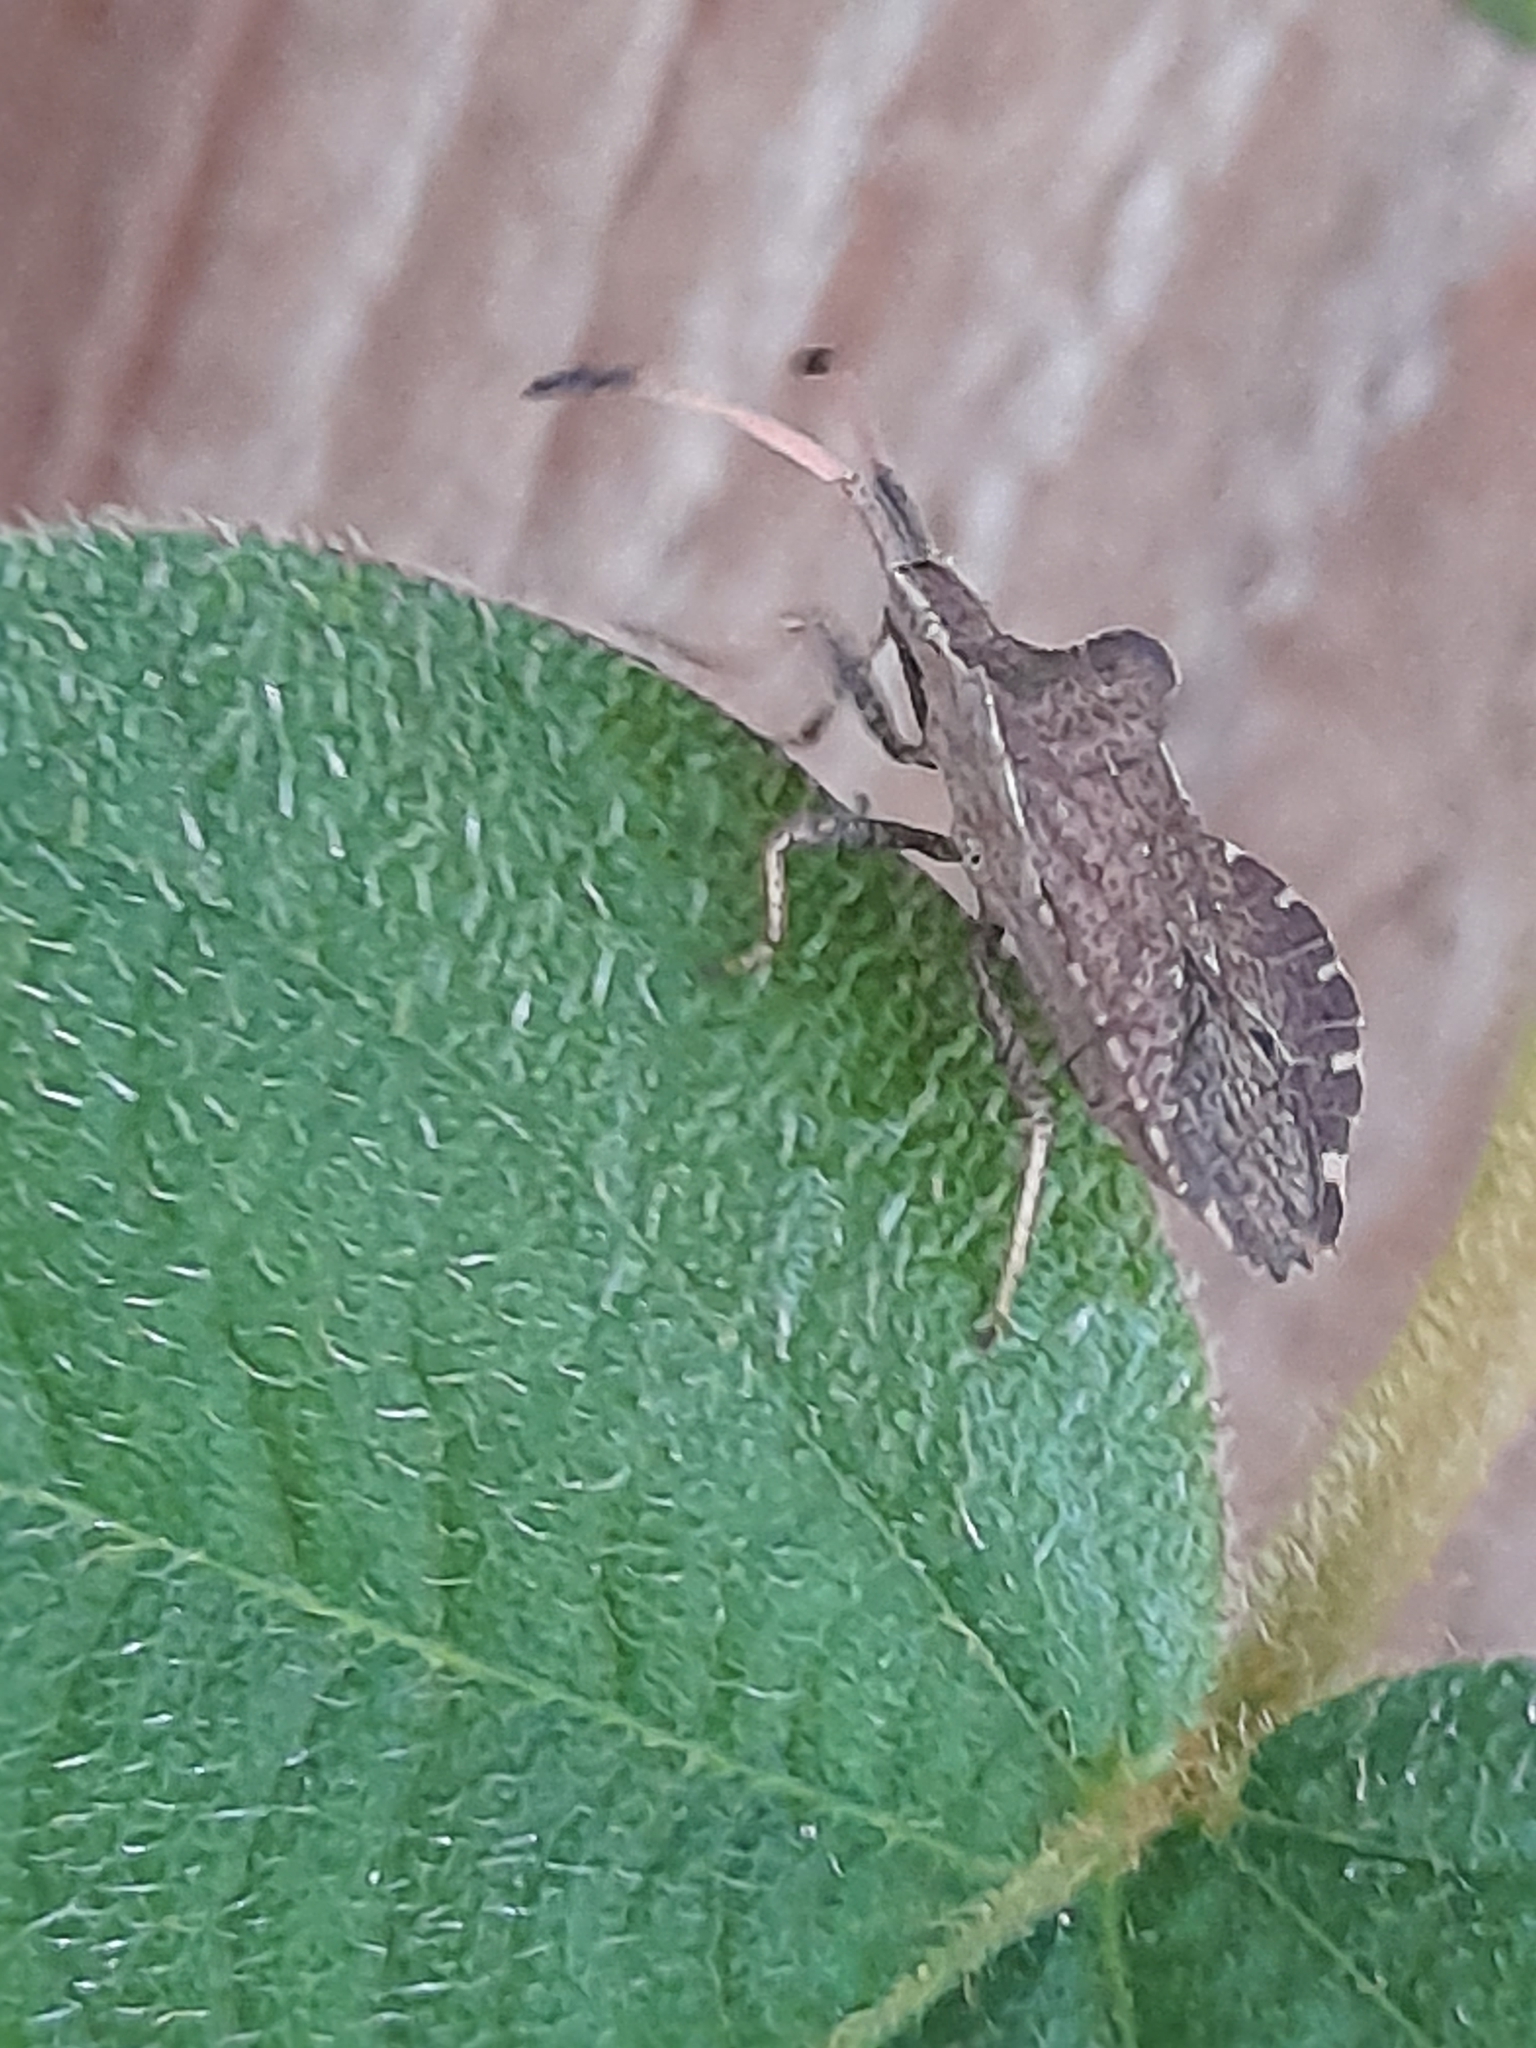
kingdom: Animalia
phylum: Arthropoda
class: Insecta
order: Hemiptera
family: Coreidae
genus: Enoplops
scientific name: Enoplops scapha
